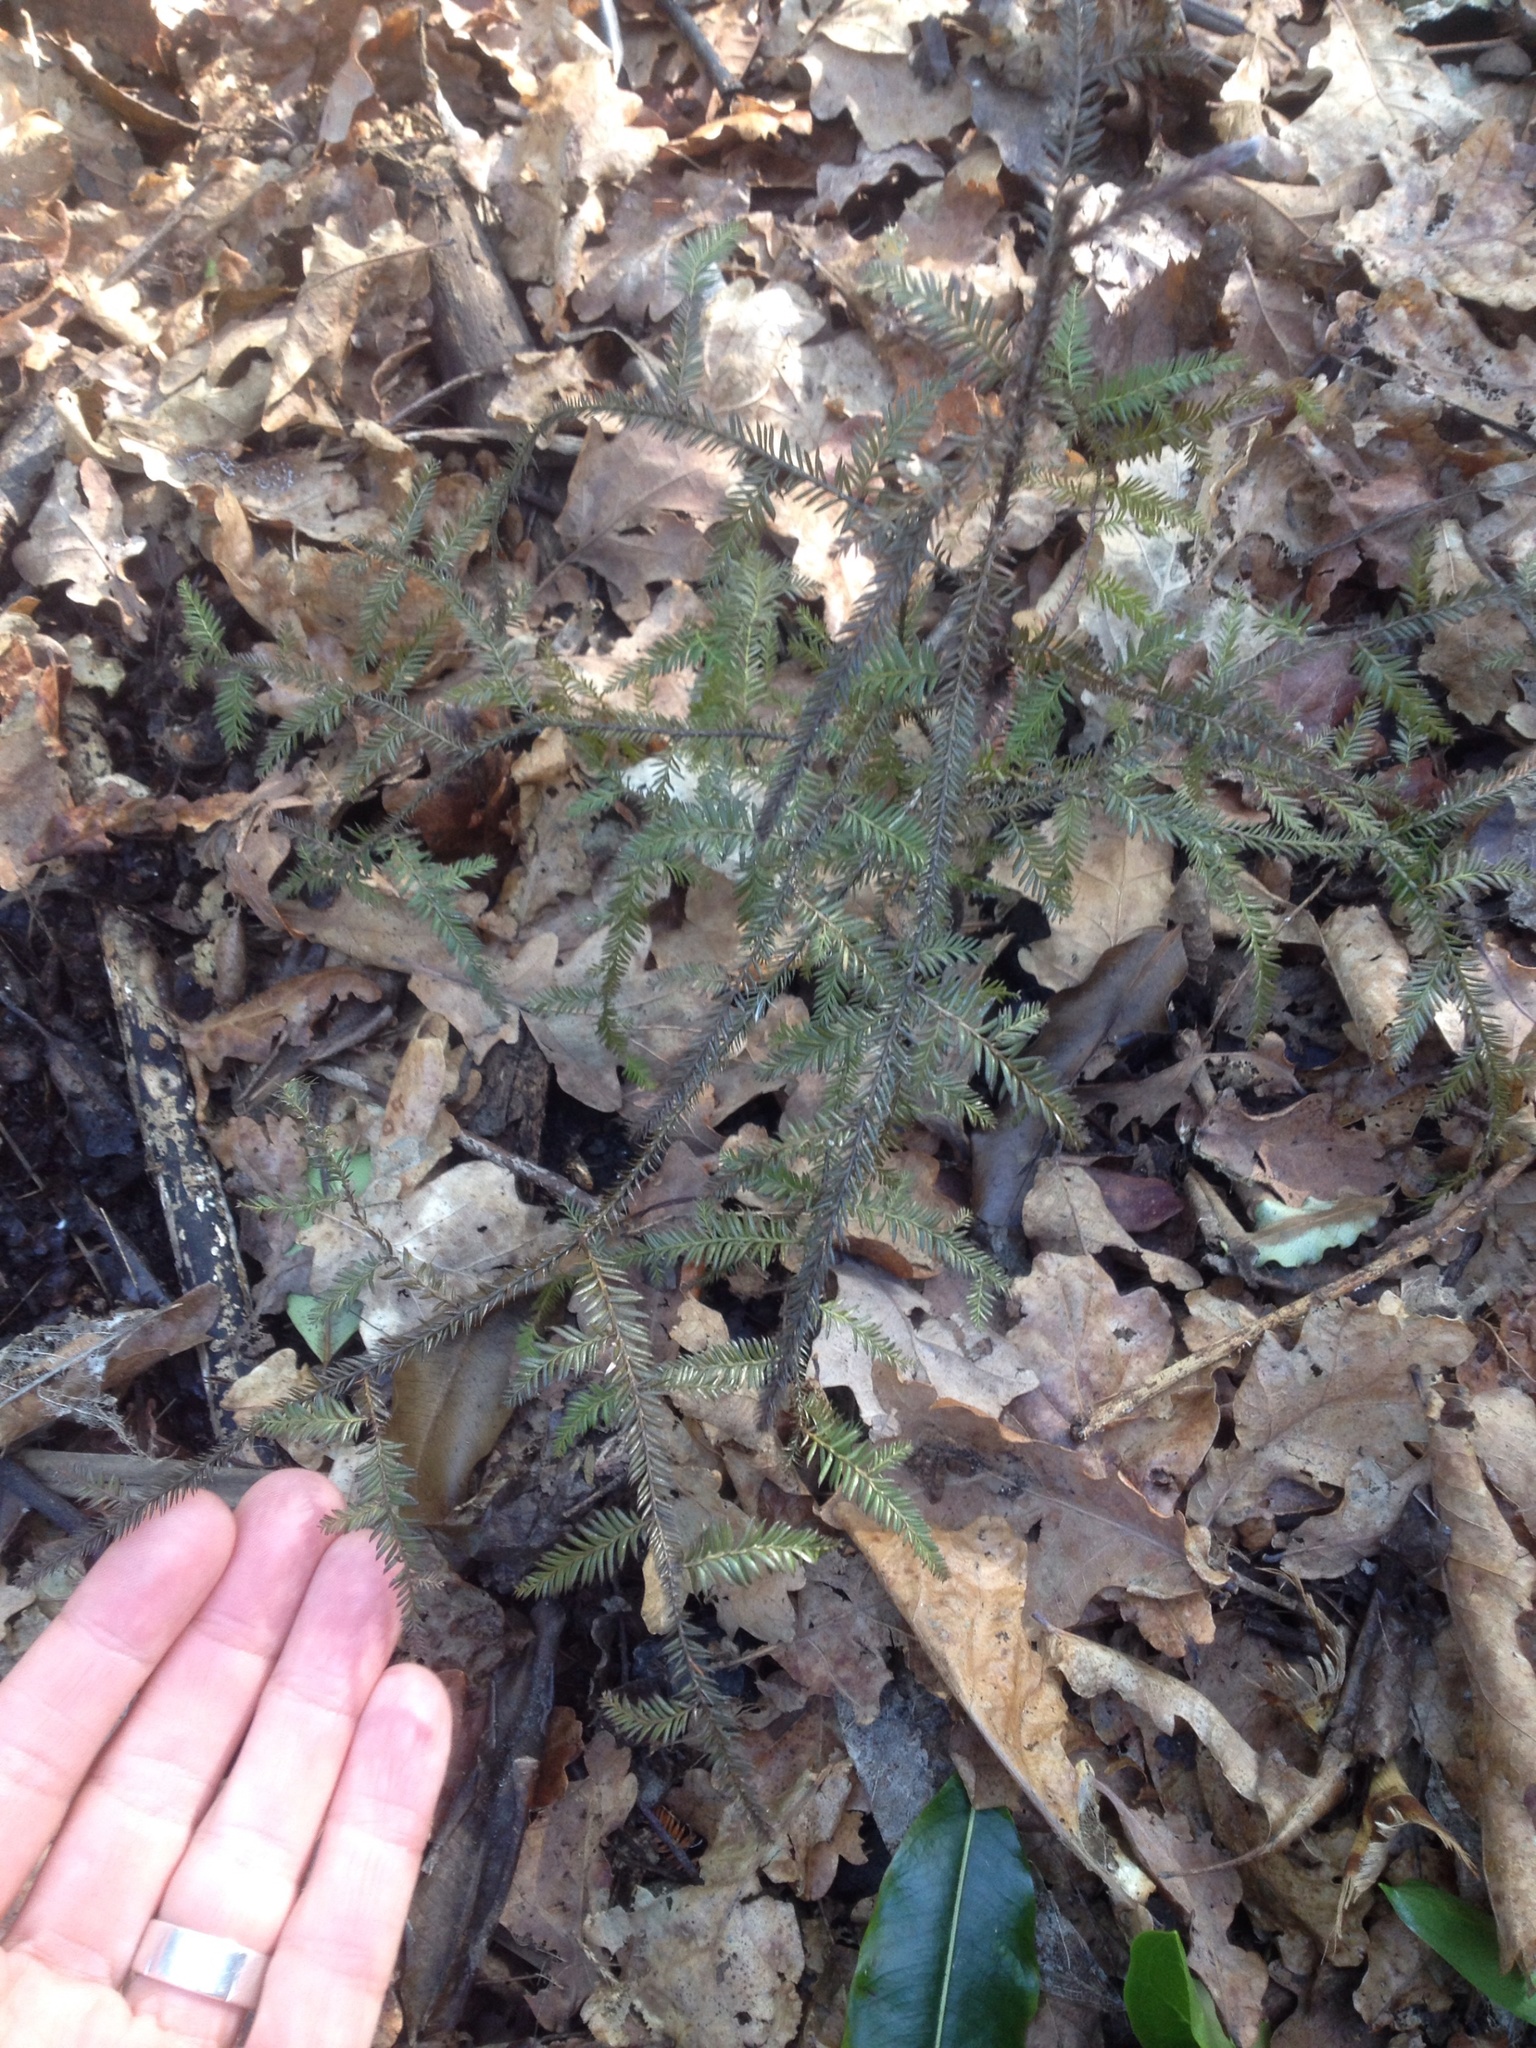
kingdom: Plantae
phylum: Tracheophyta
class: Pinopsida
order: Pinales
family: Podocarpaceae
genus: Dacrycarpus
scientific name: Dacrycarpus dacrydioides
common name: White pine
